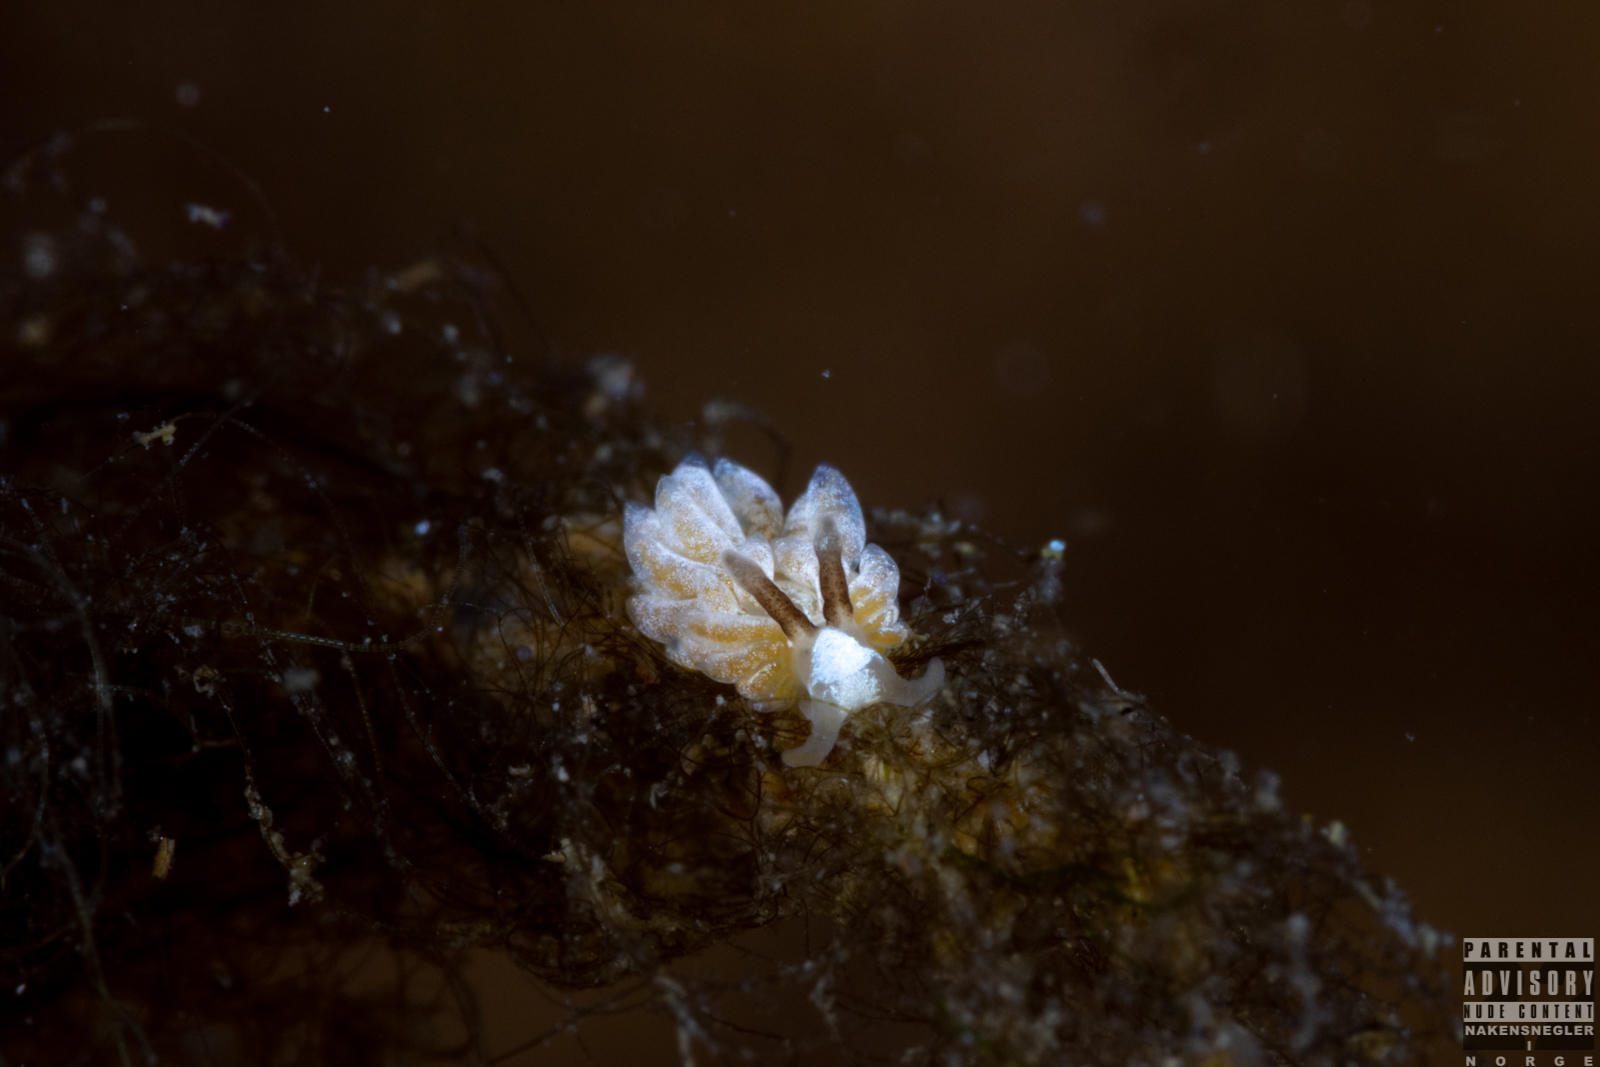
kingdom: Animalia
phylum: Mollusca
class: Gastropoda
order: Nudibranchia
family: Facelinidae
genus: Favorinus
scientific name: Favorinus branchialis
